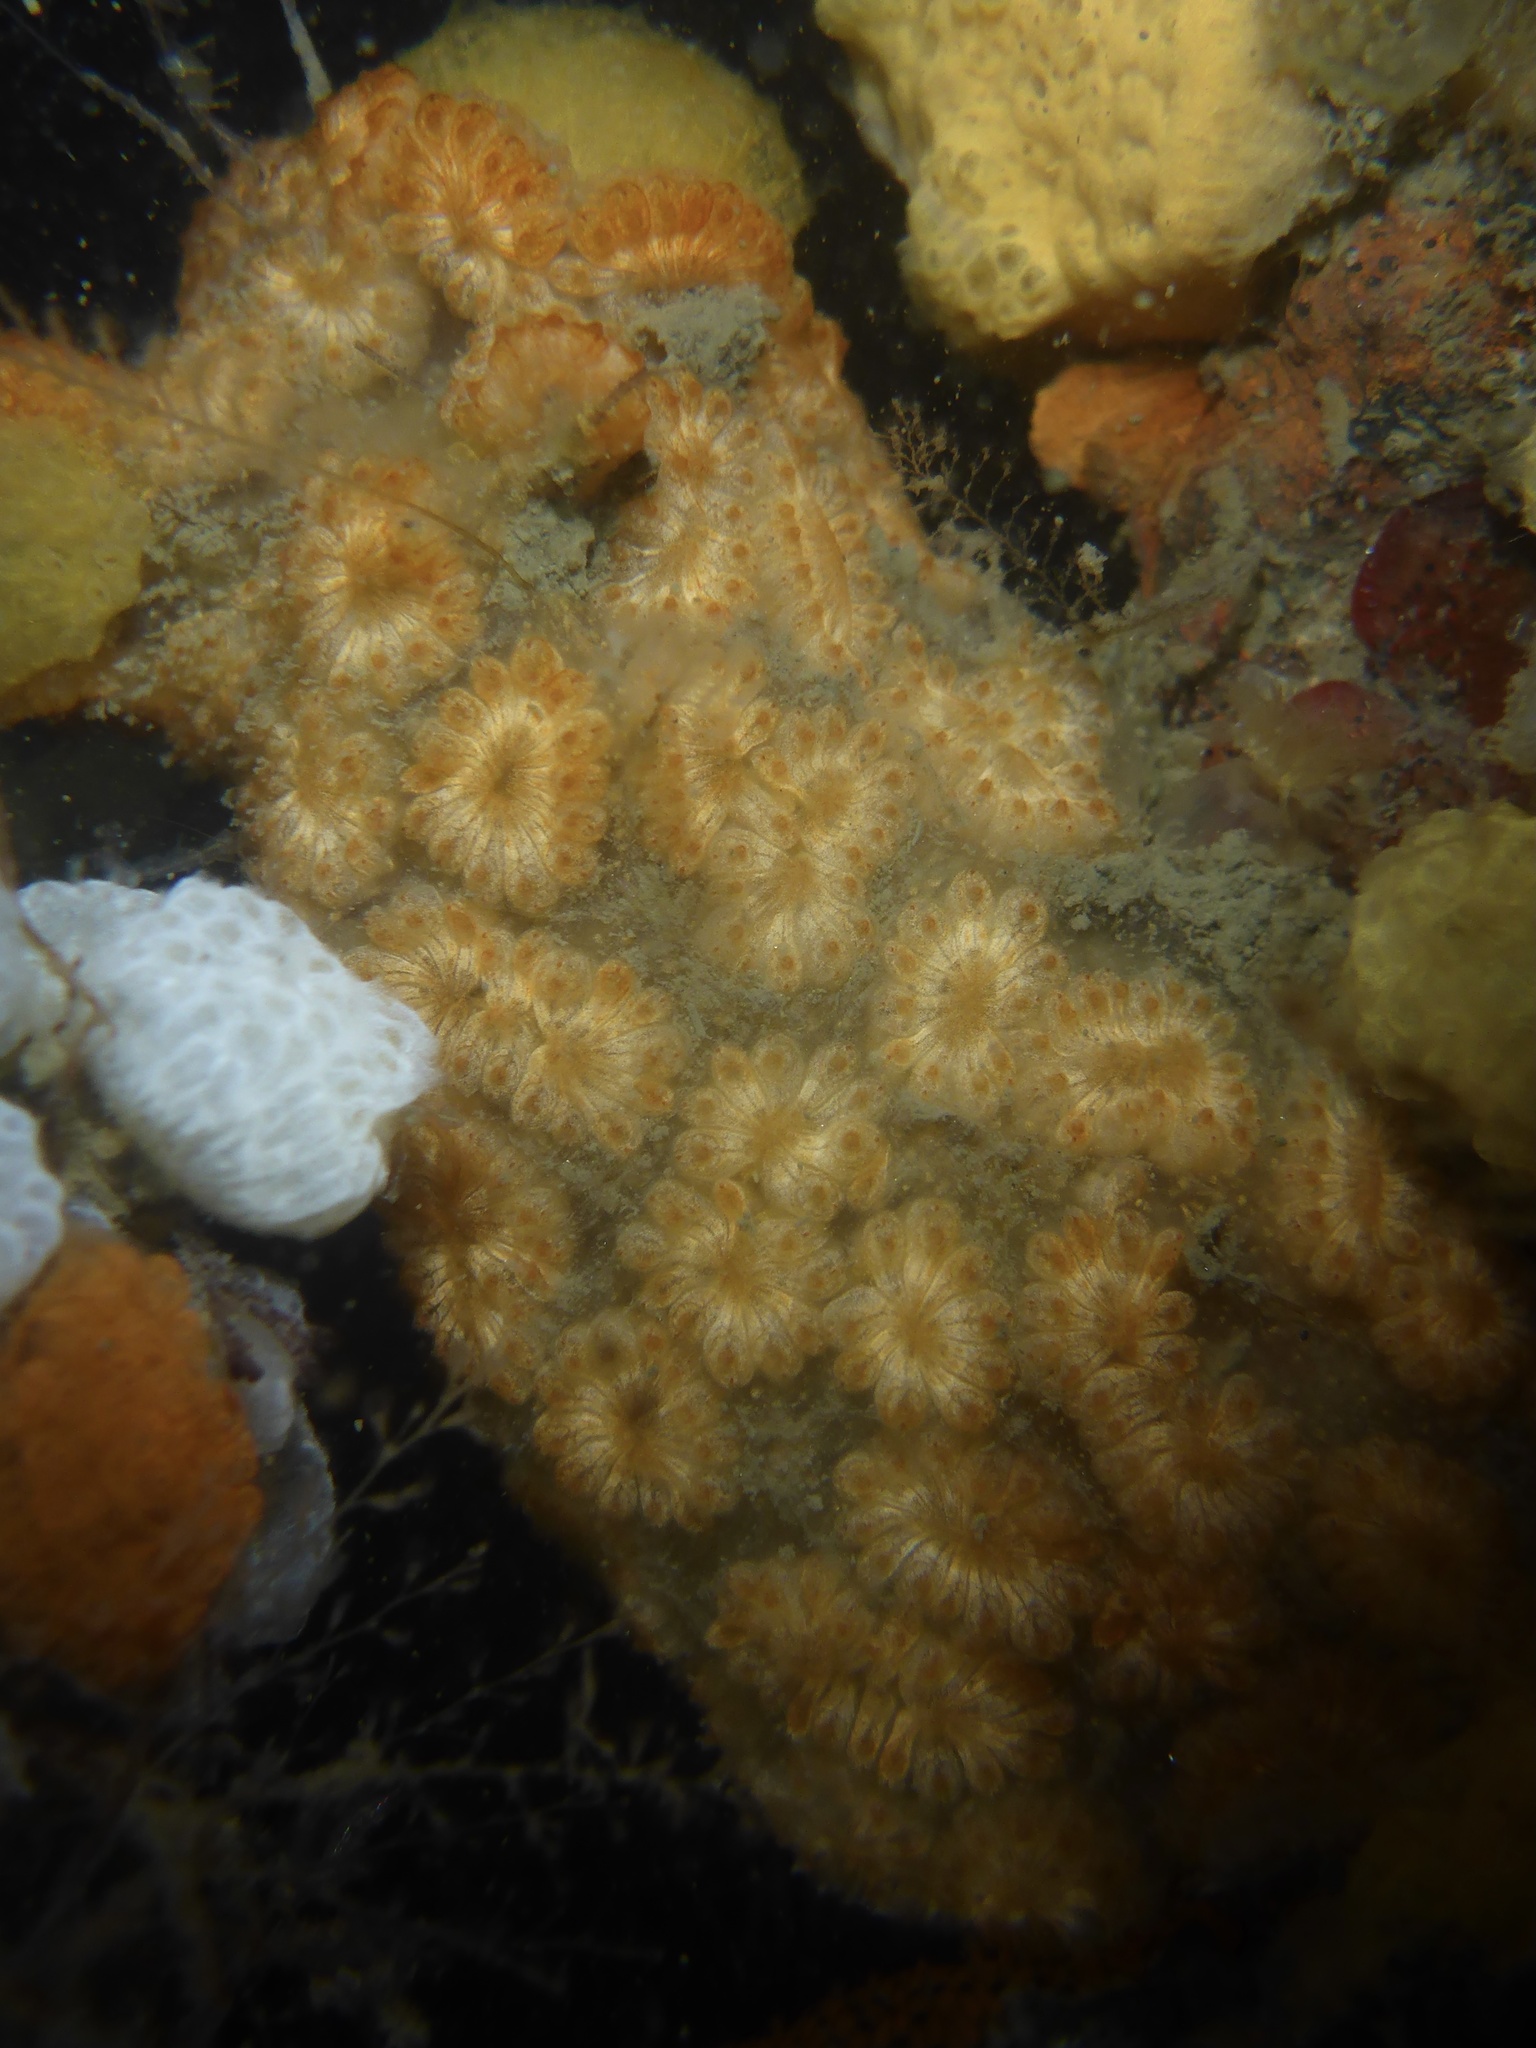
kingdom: Animalia
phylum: Chordata
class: Ascidiacea
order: Stolidobranchia
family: Styelidae
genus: Botryllus
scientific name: Botryllus schlosseri
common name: Golden star tunicate
